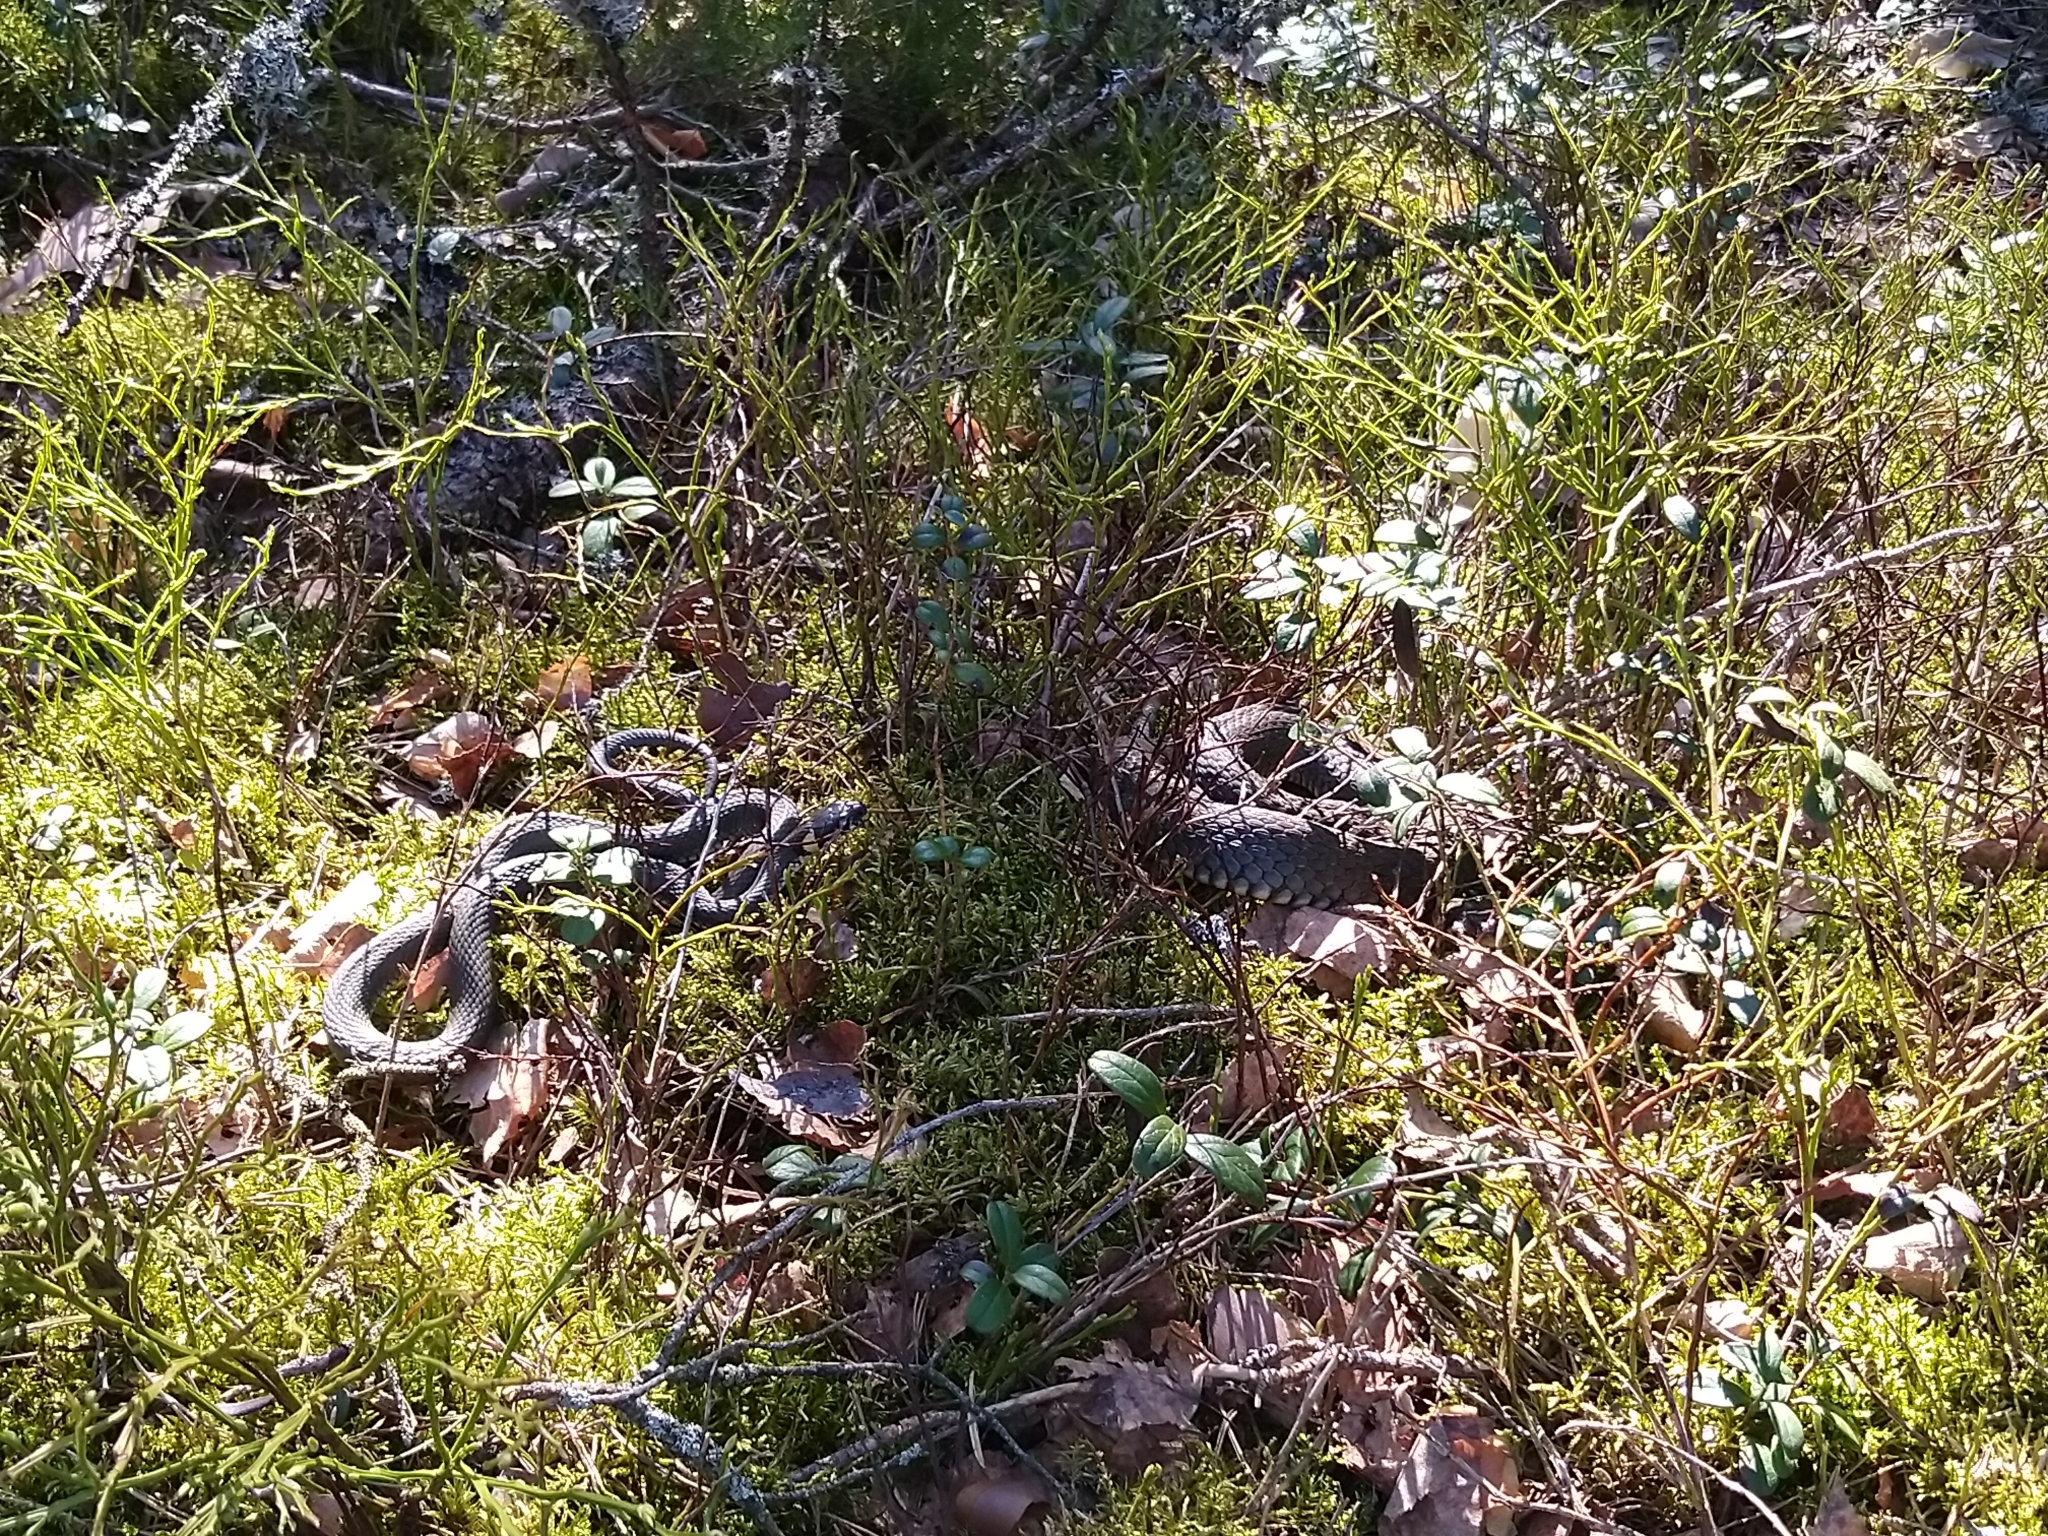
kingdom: Animalia
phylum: Chordata
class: Squamata
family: Colubridae
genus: Natrix
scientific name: Natrix natrix
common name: Grass snake
